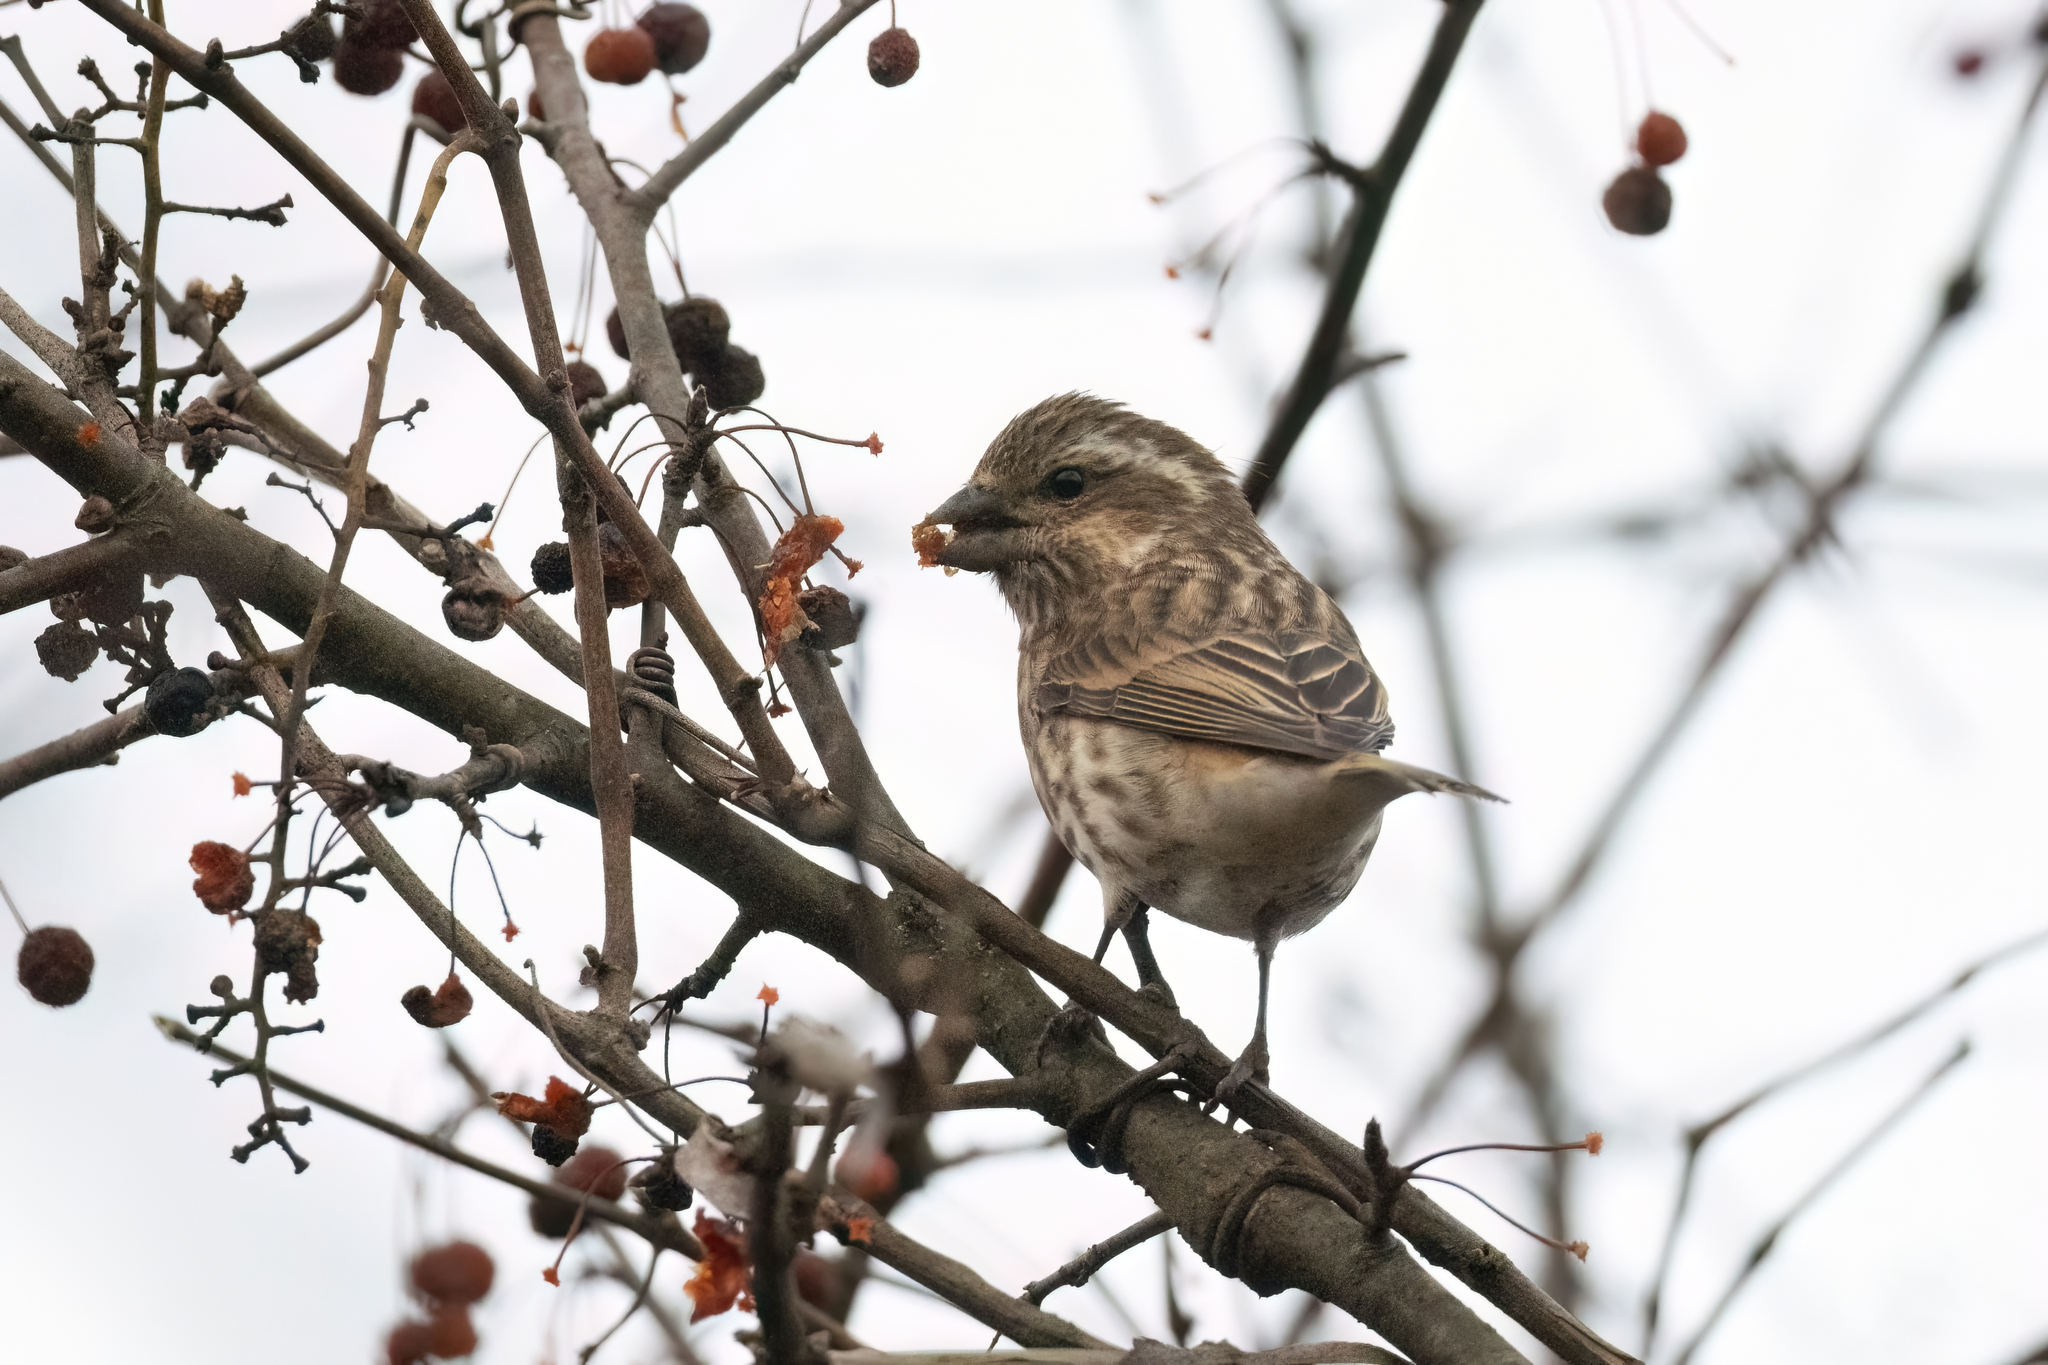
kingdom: Animalia
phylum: Chordata
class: Aves
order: Passeriformes
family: Fringillidae
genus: Haemorhous
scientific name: Haemorhous purpureus
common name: Purple finch
